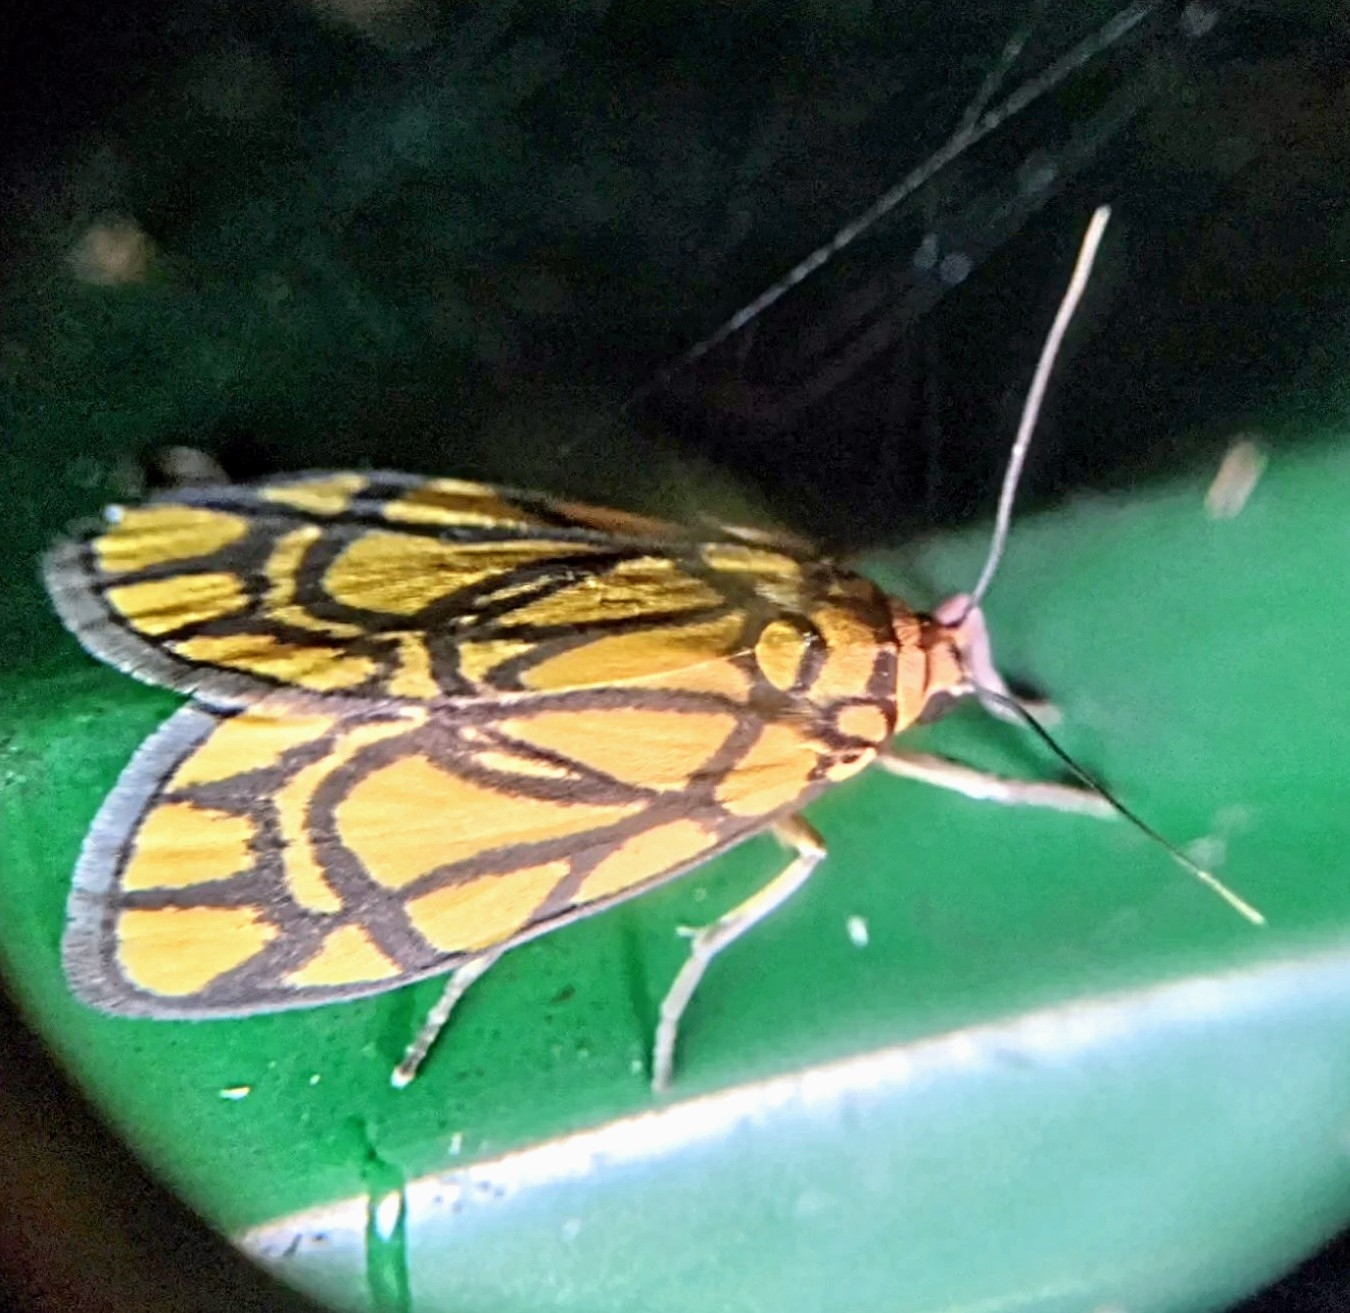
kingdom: Animalia
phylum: Arthropoda
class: Insecta
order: Lepidoptera
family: Erebidae
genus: Cyme
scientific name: Cyme euprepioides
